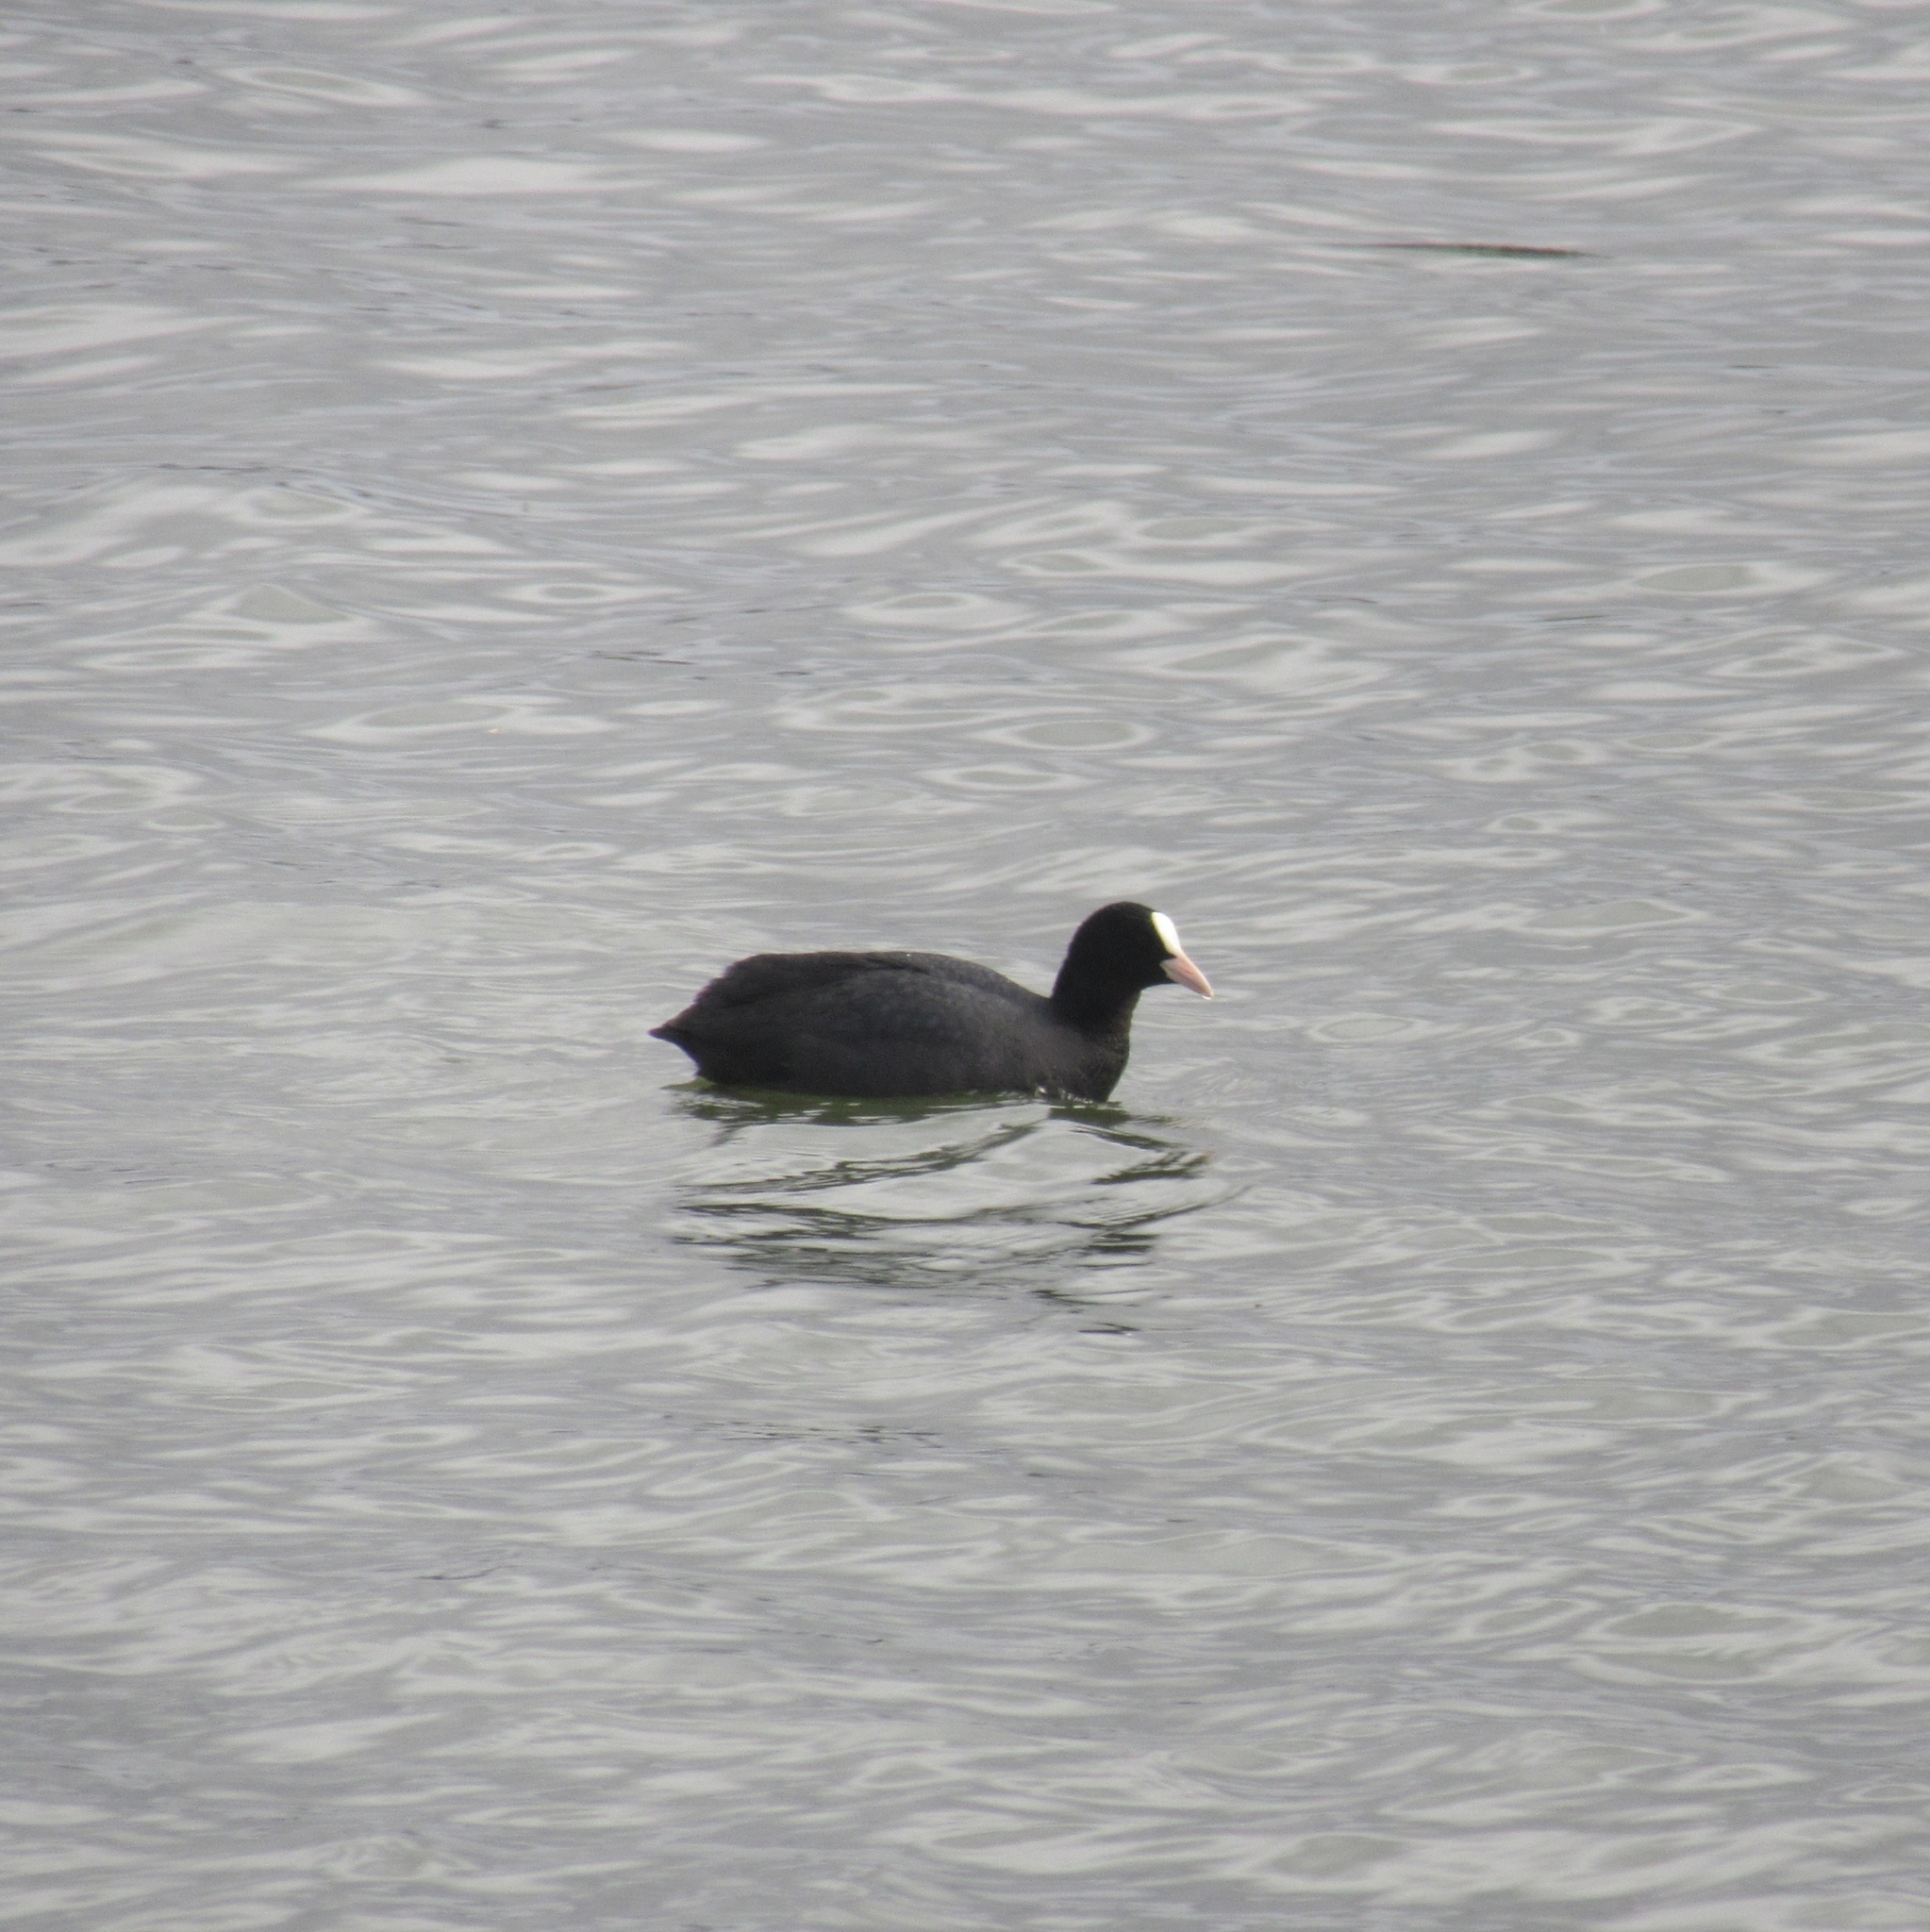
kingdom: Animalia
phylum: Chordata
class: Aves
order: Gruiformes
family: Rallidae
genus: Fulica
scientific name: Fulica atra
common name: Eurasian coot
